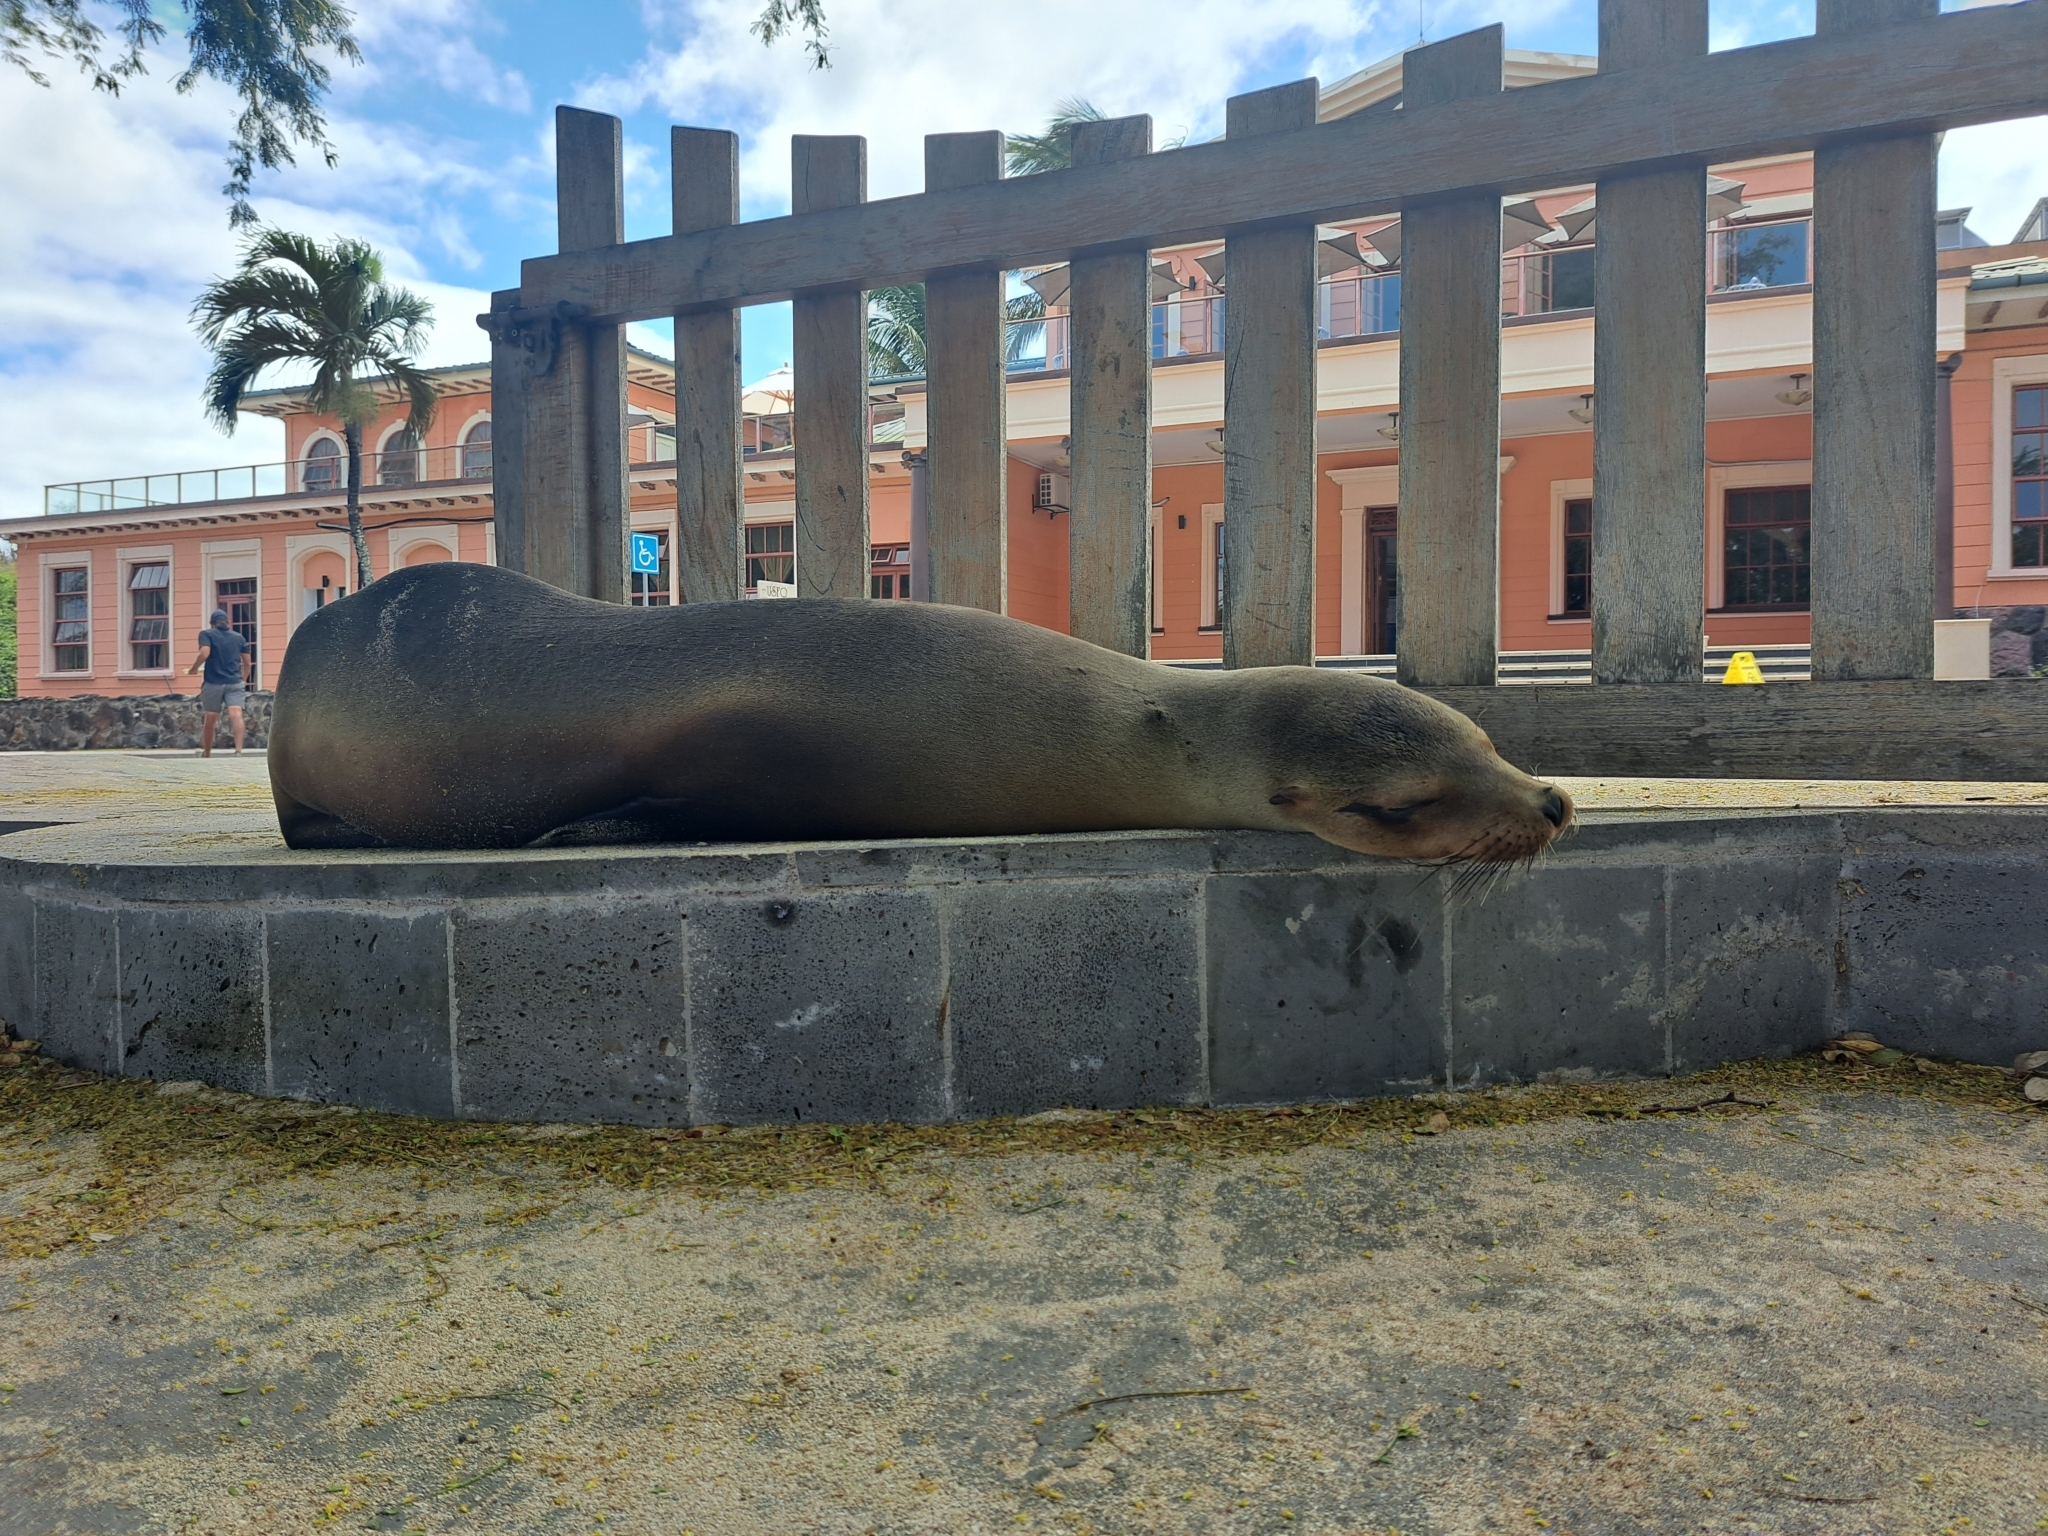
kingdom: Animalia
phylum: Chordata
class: Mammalia
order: Carnivora
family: Otariidae
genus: Zalophus
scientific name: Zalophus wollebaeki
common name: Galapagos sea lion
